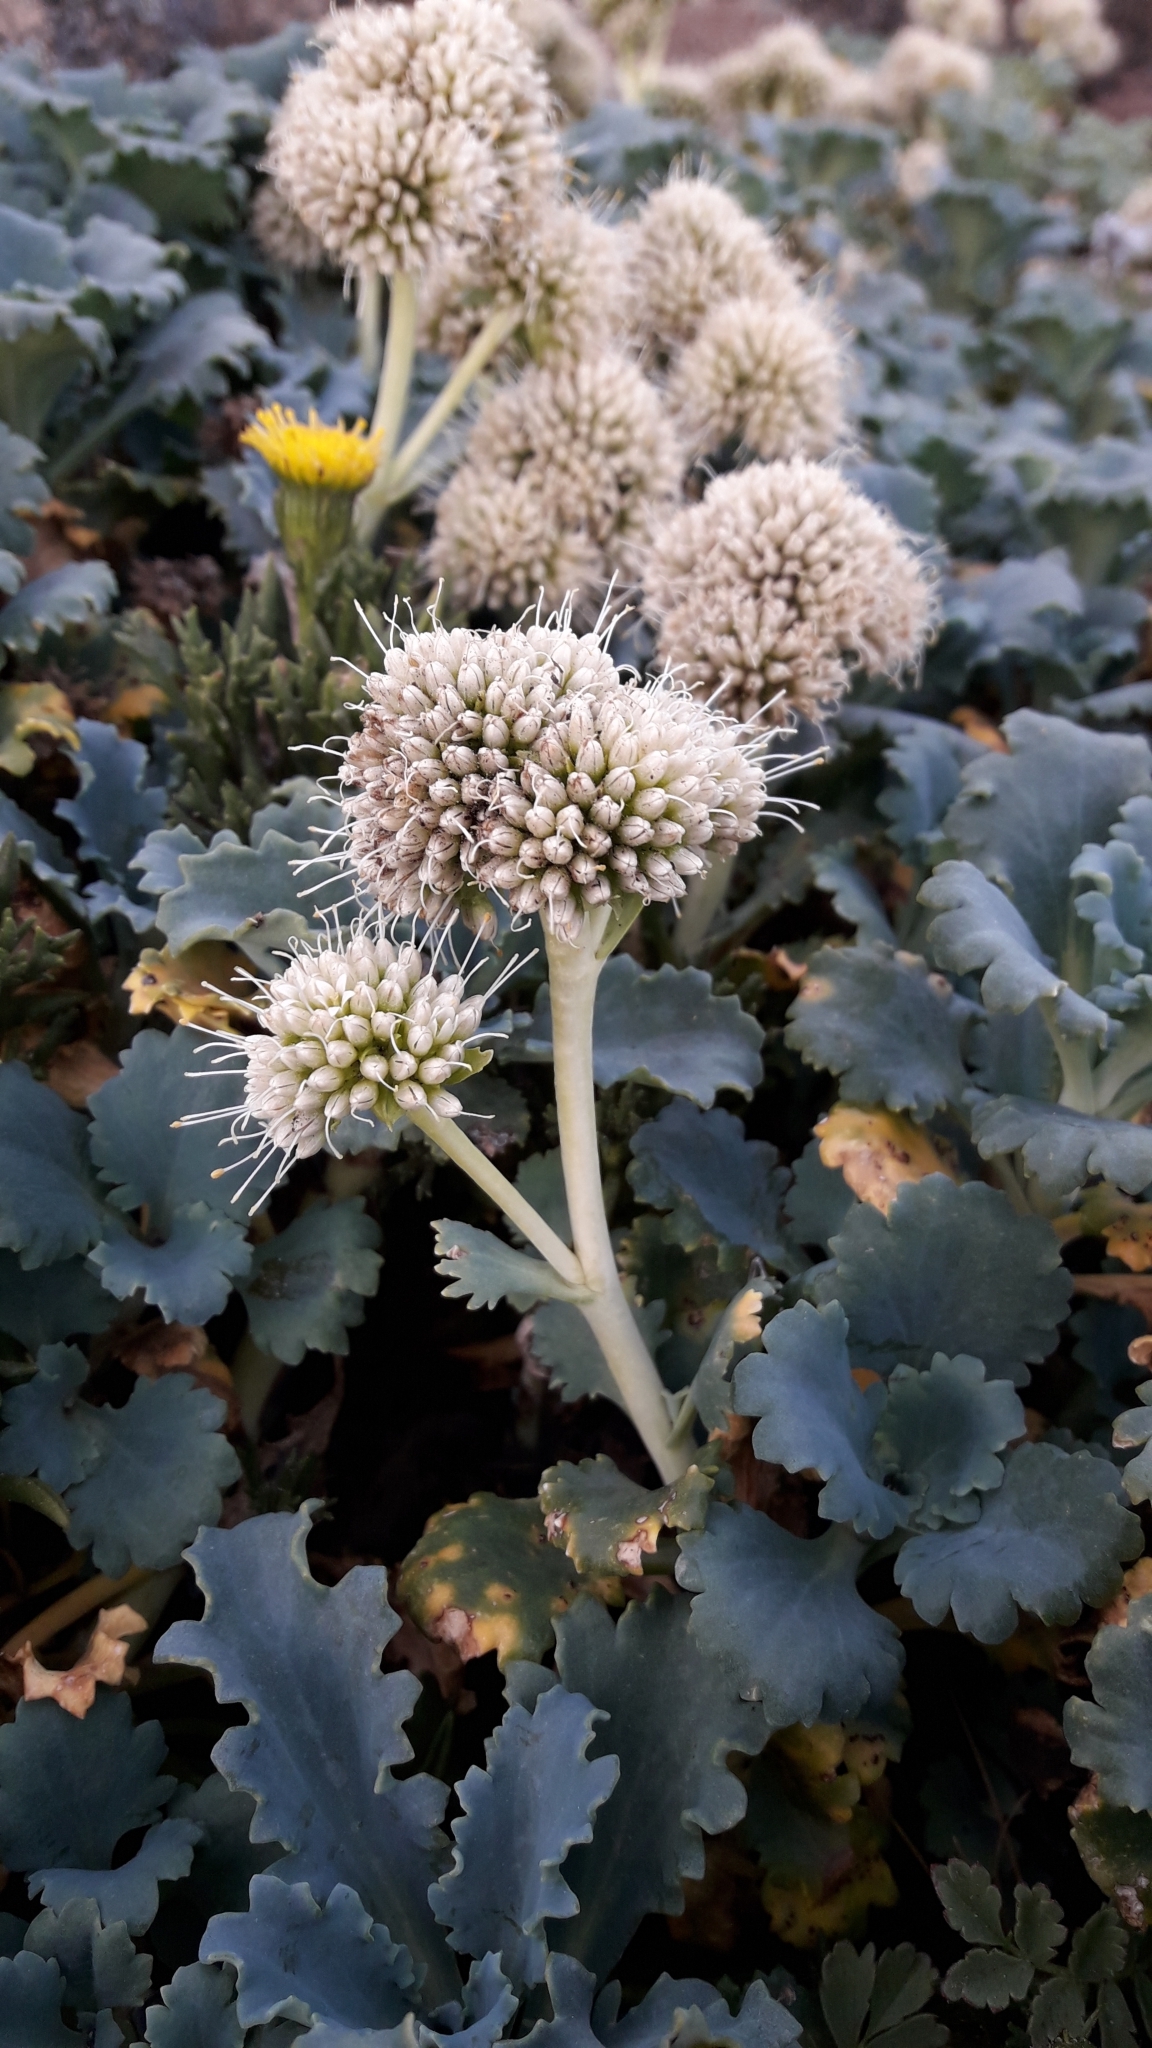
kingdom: Plantae
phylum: Tracheophyta
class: Magnoliopsida
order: Asterales
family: Calyceraceae
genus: Moschopsis
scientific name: Moschopsis ameghinoi
